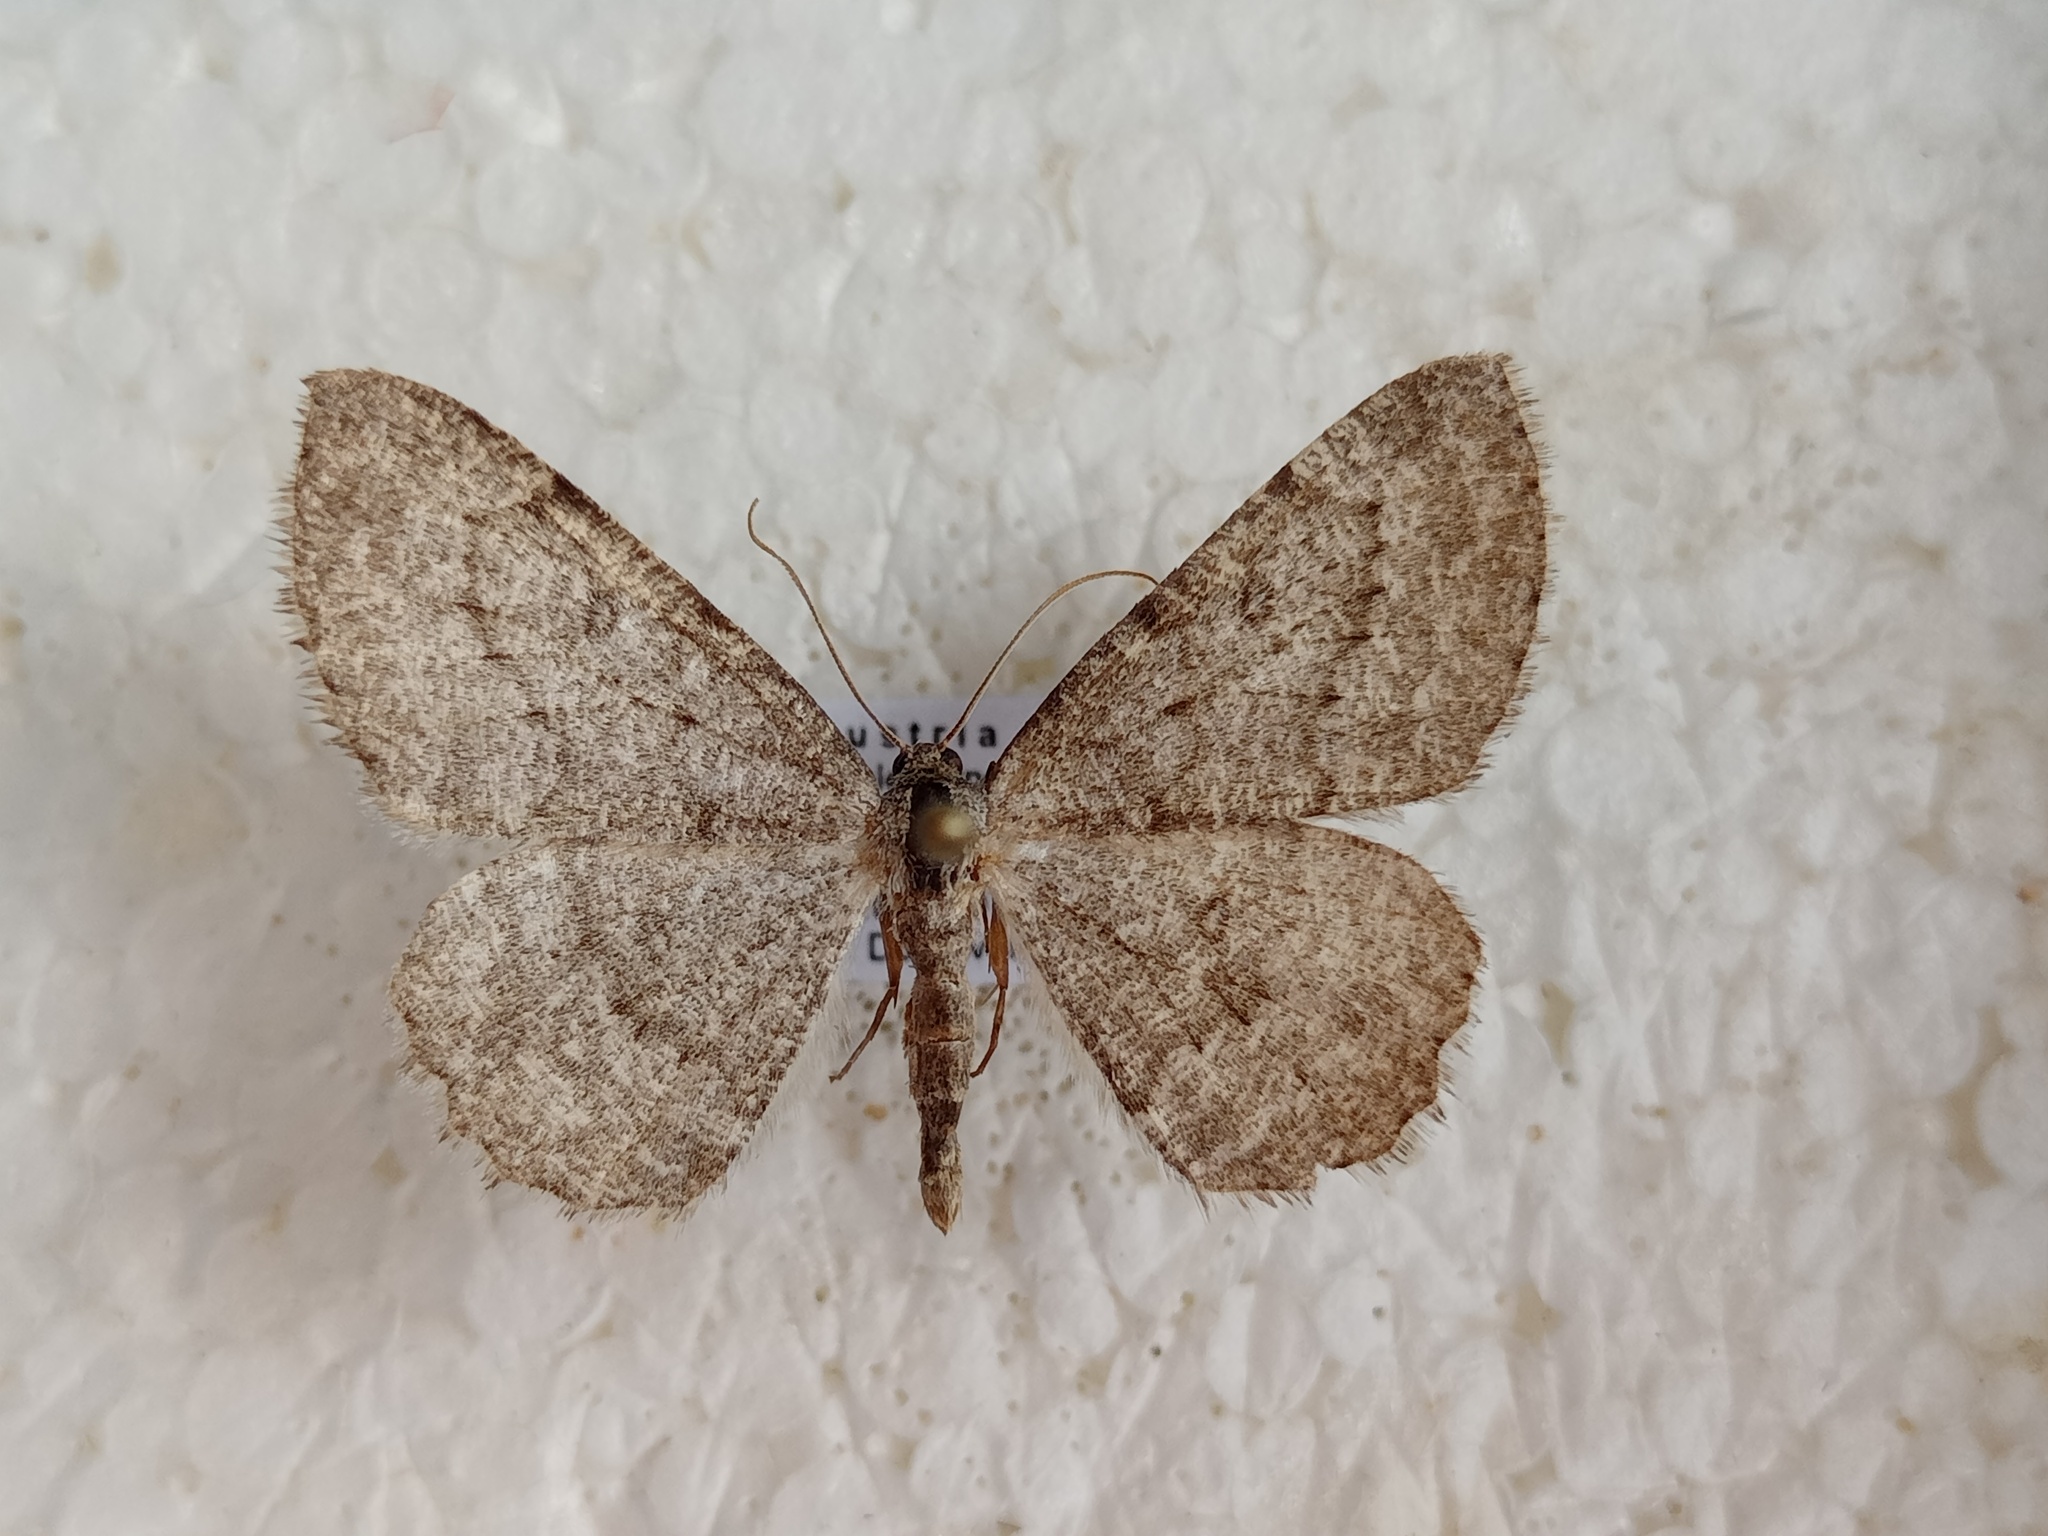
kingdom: Animalia
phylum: Arthropoda
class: Insecta
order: Lepidoptera
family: Geometridae
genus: Charissa
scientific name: Charissa ambiguata
